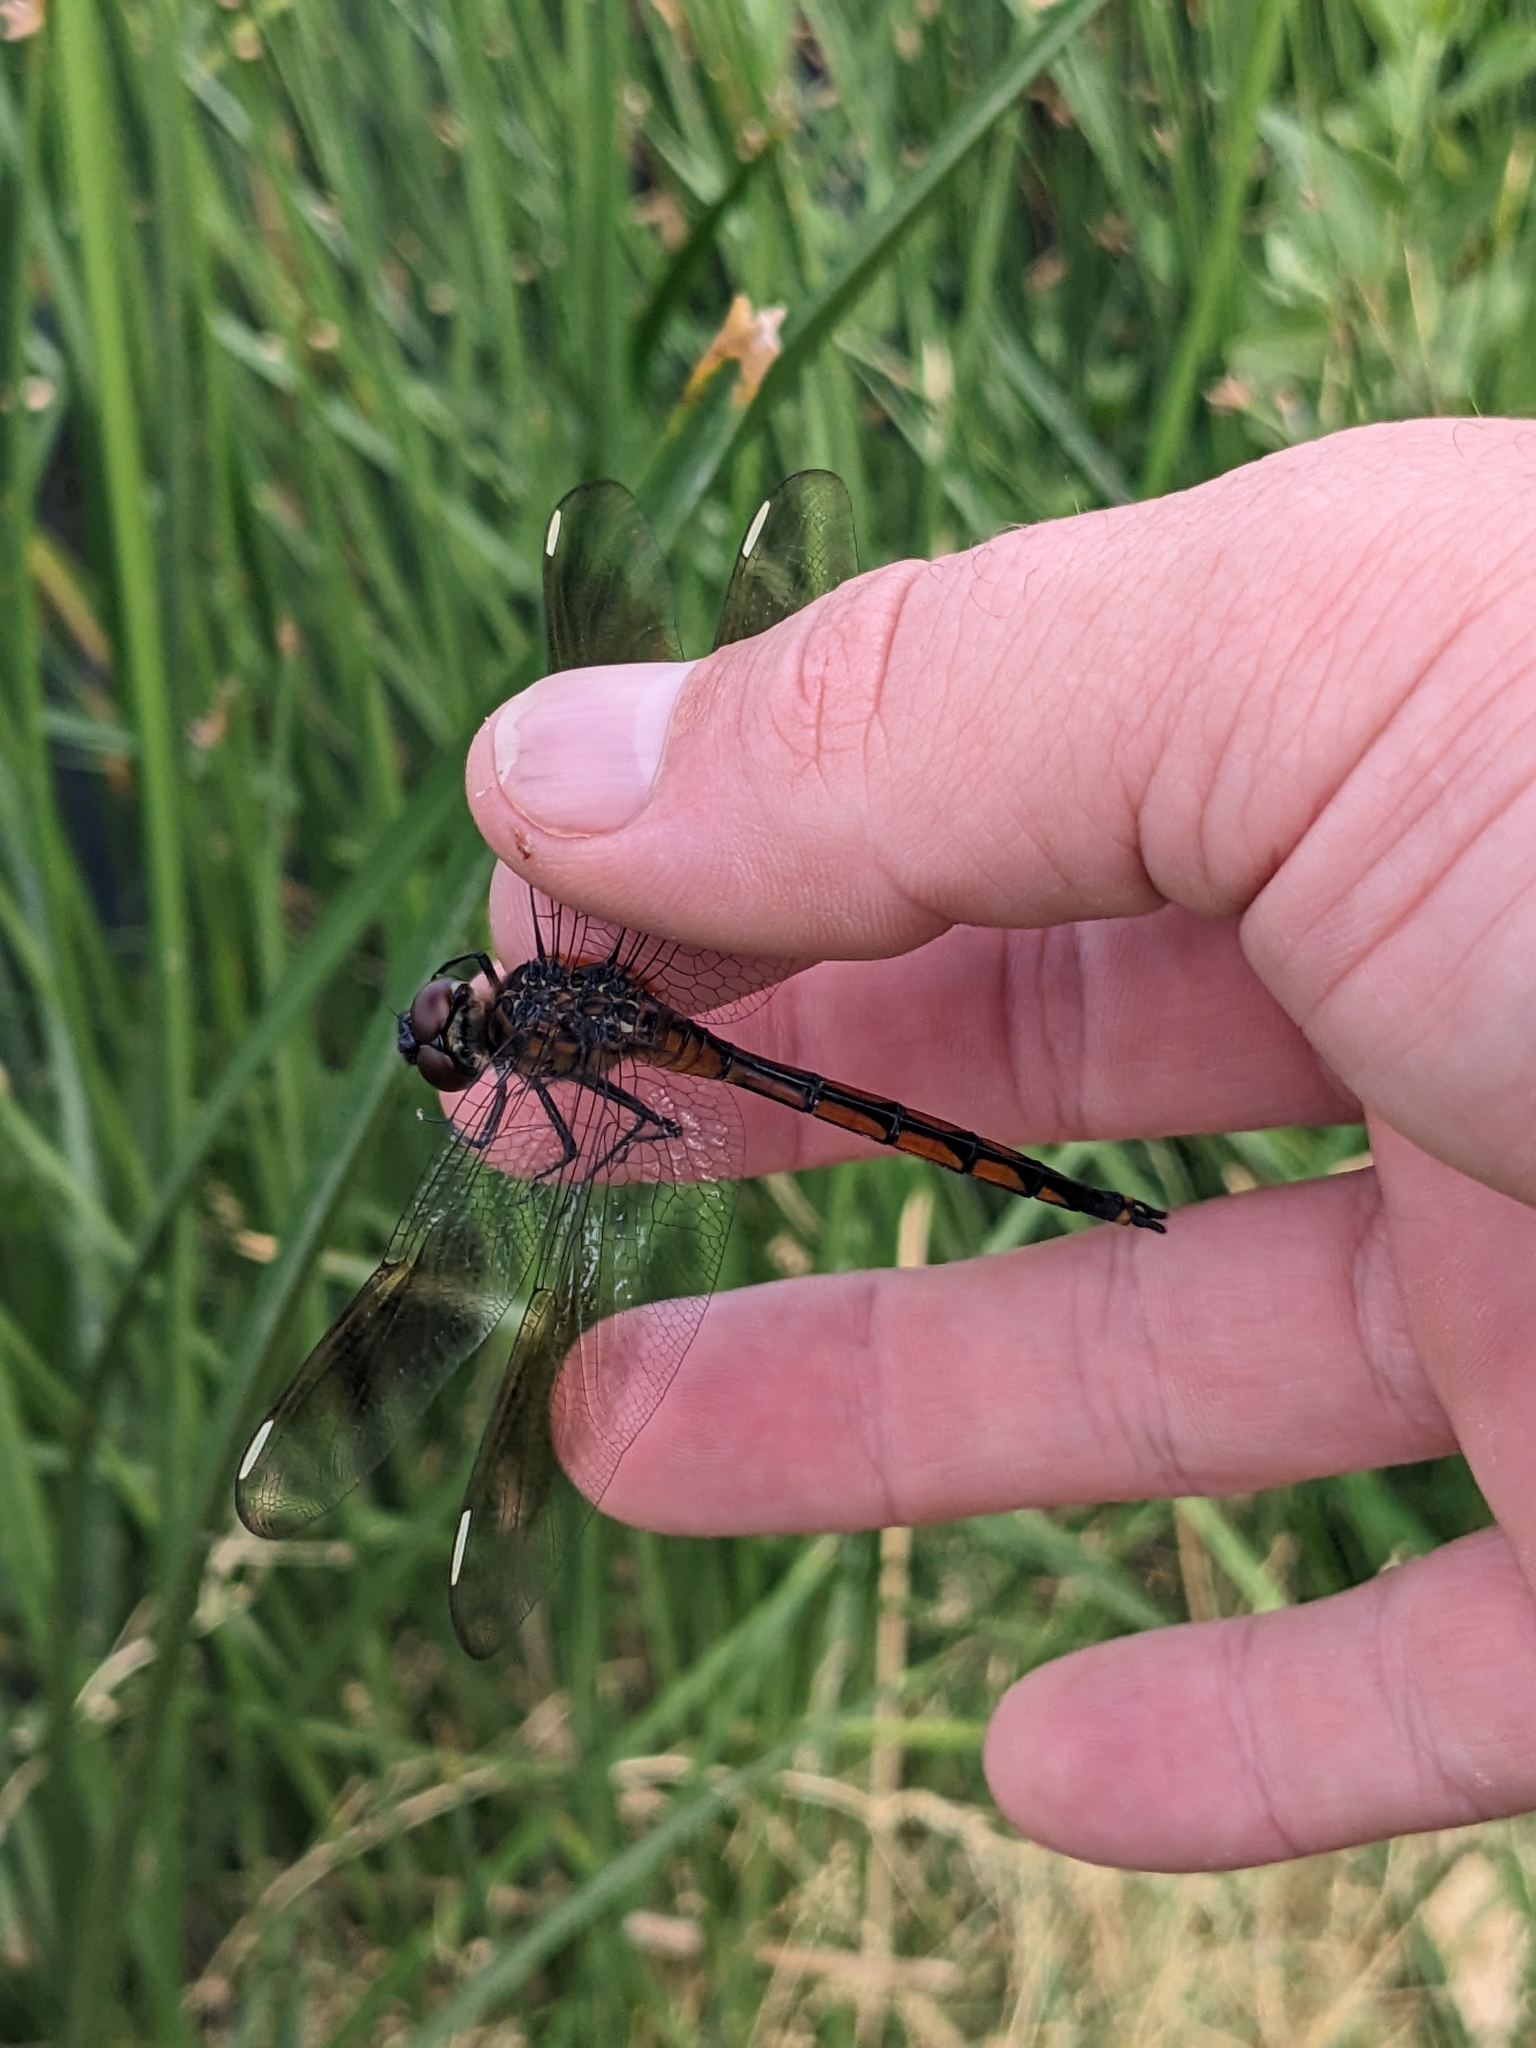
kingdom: Animalia
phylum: Arthropoda
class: Insecta
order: Odonata
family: Libellulidae
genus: Brachymesia
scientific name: Brachymesia gravida
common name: Four-spotted pennant
